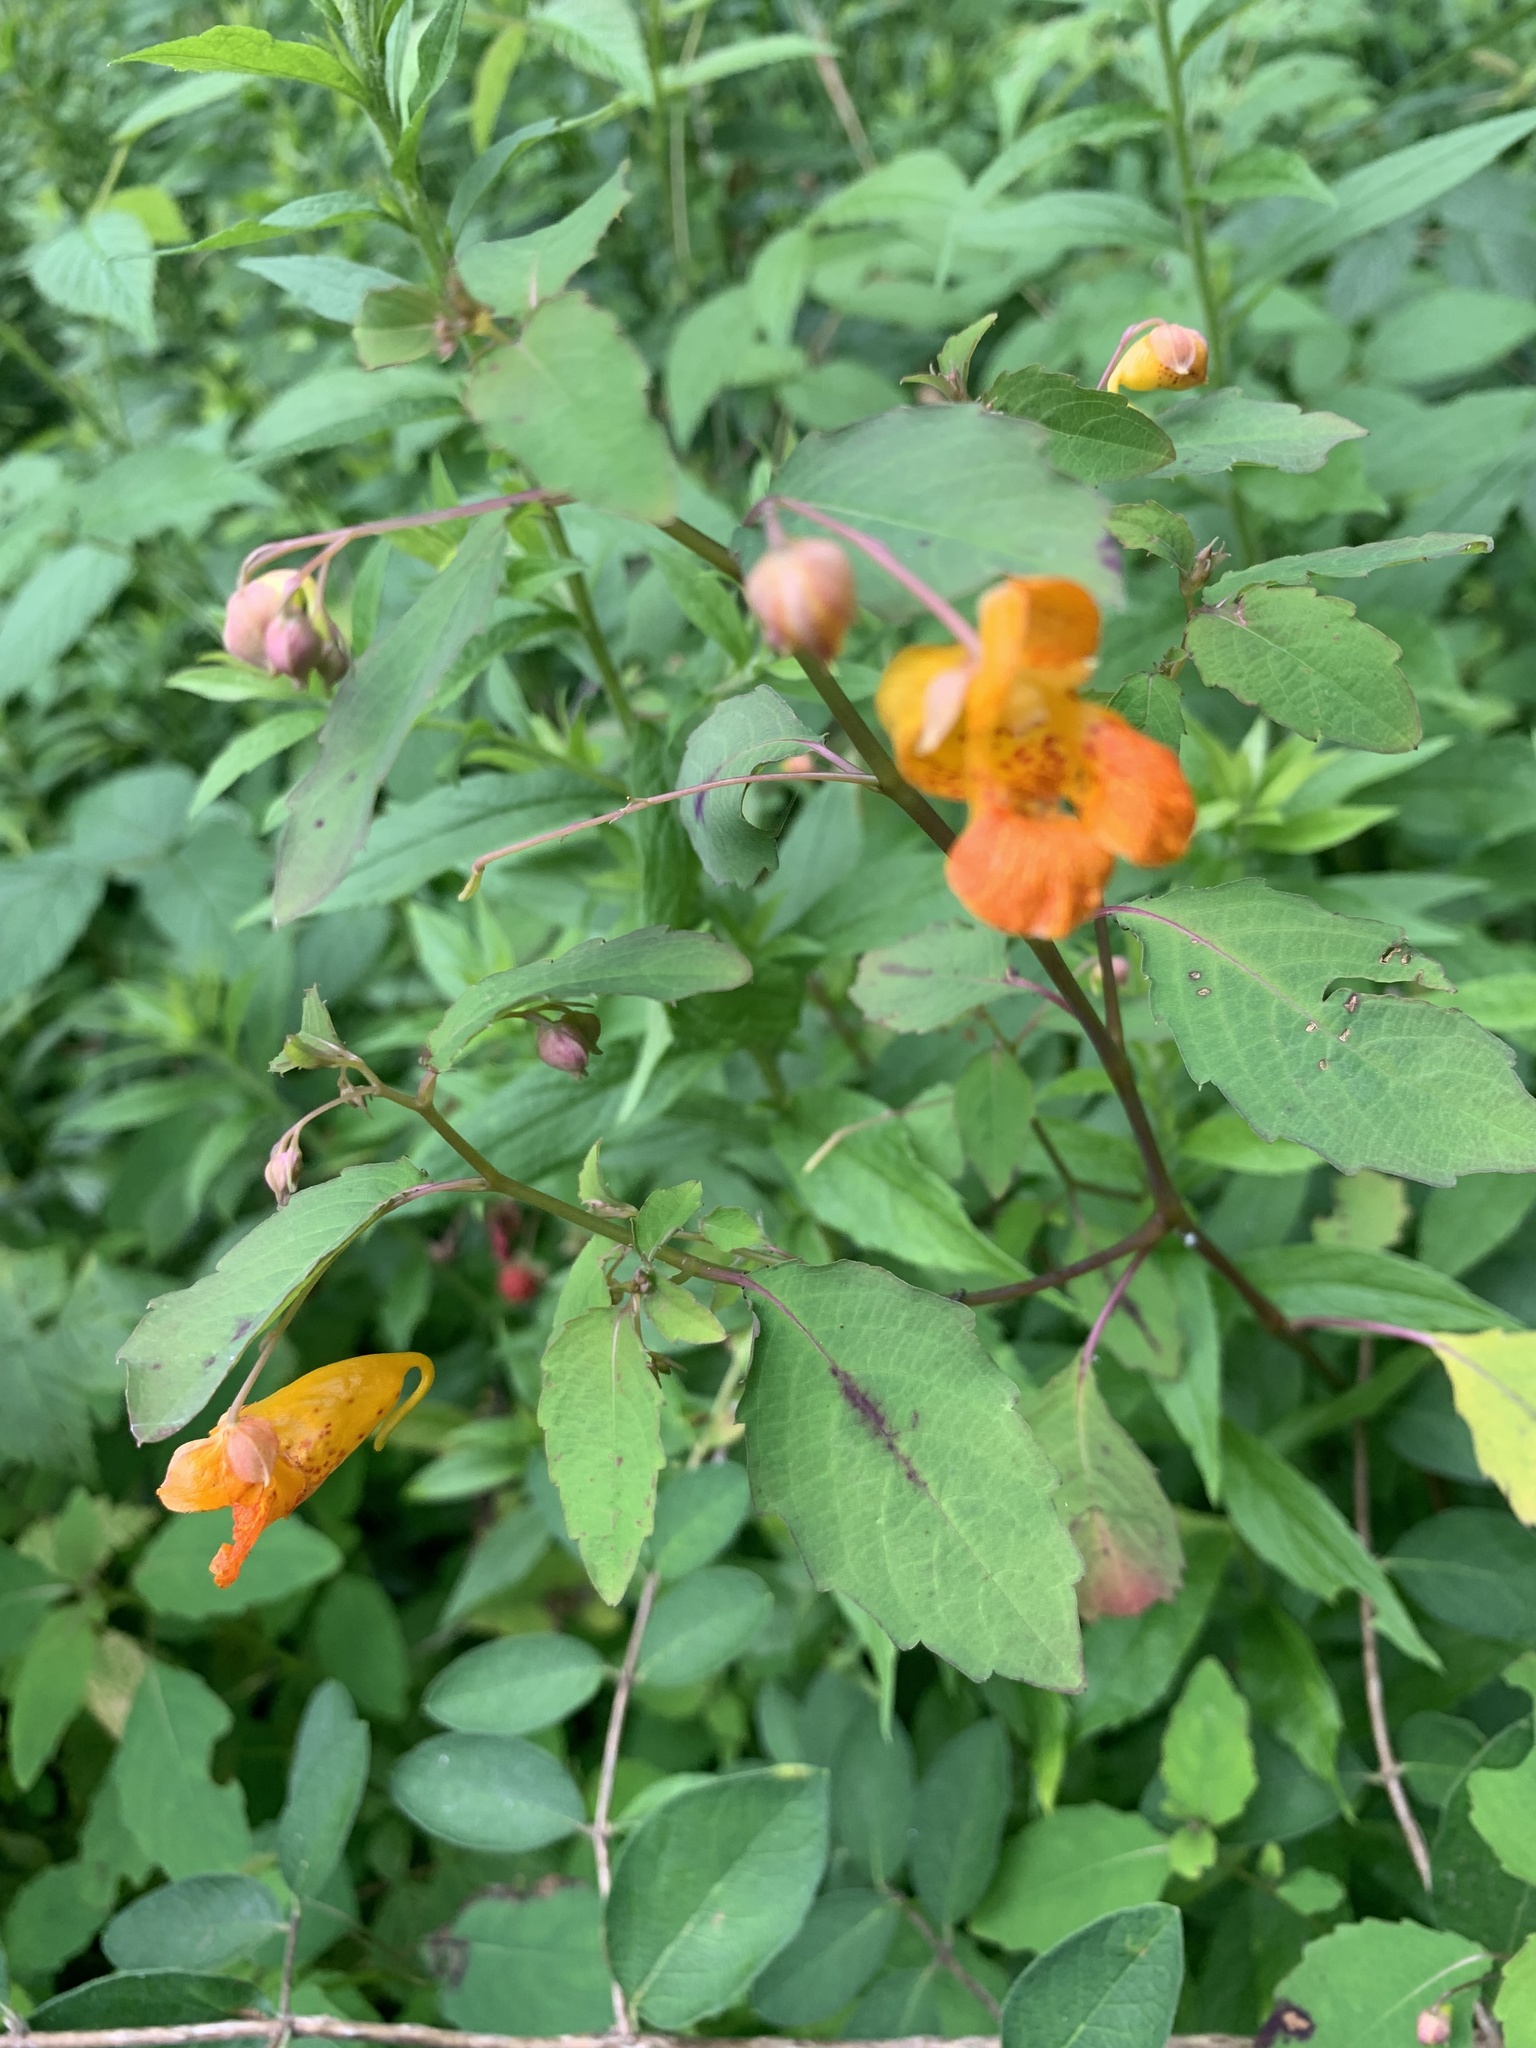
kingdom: Plantae
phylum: Tracheophyta
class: Magnoliopsida
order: Ericales
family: Balsaminaceae
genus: Impatiens
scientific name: Impatiens capensis
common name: Orange balsam
